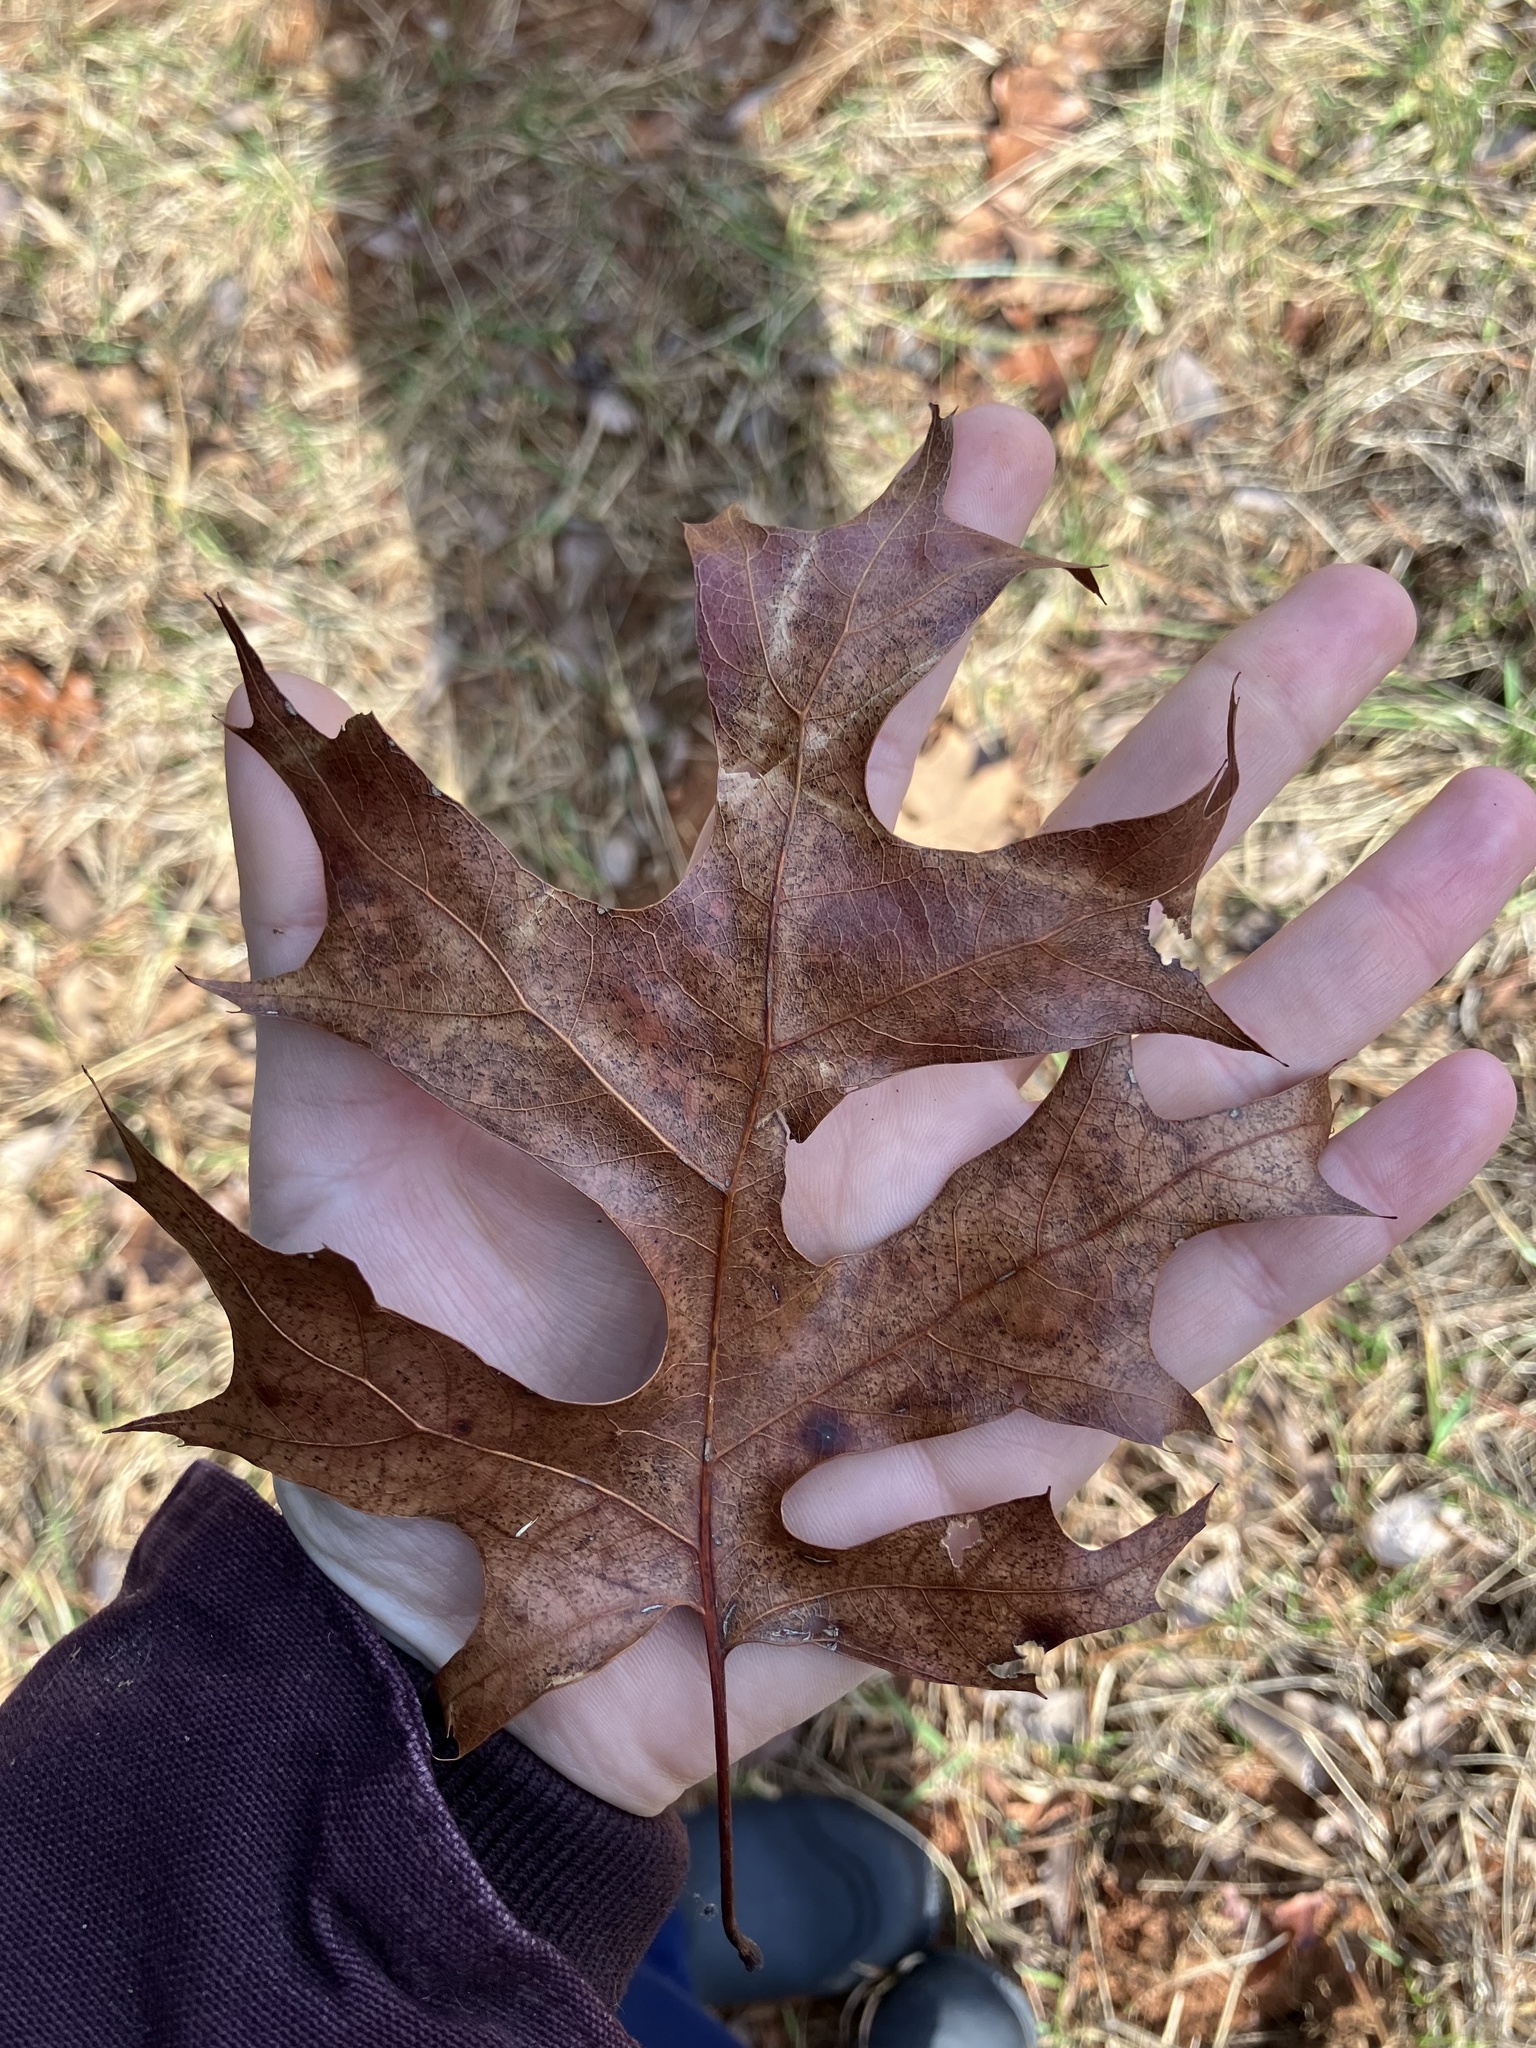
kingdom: Plantae
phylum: Tracheophyta
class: Magnoliopsida
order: Fagales
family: Fagaceae
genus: Quercus
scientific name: Quercus coccinea
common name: Scarlet oak
